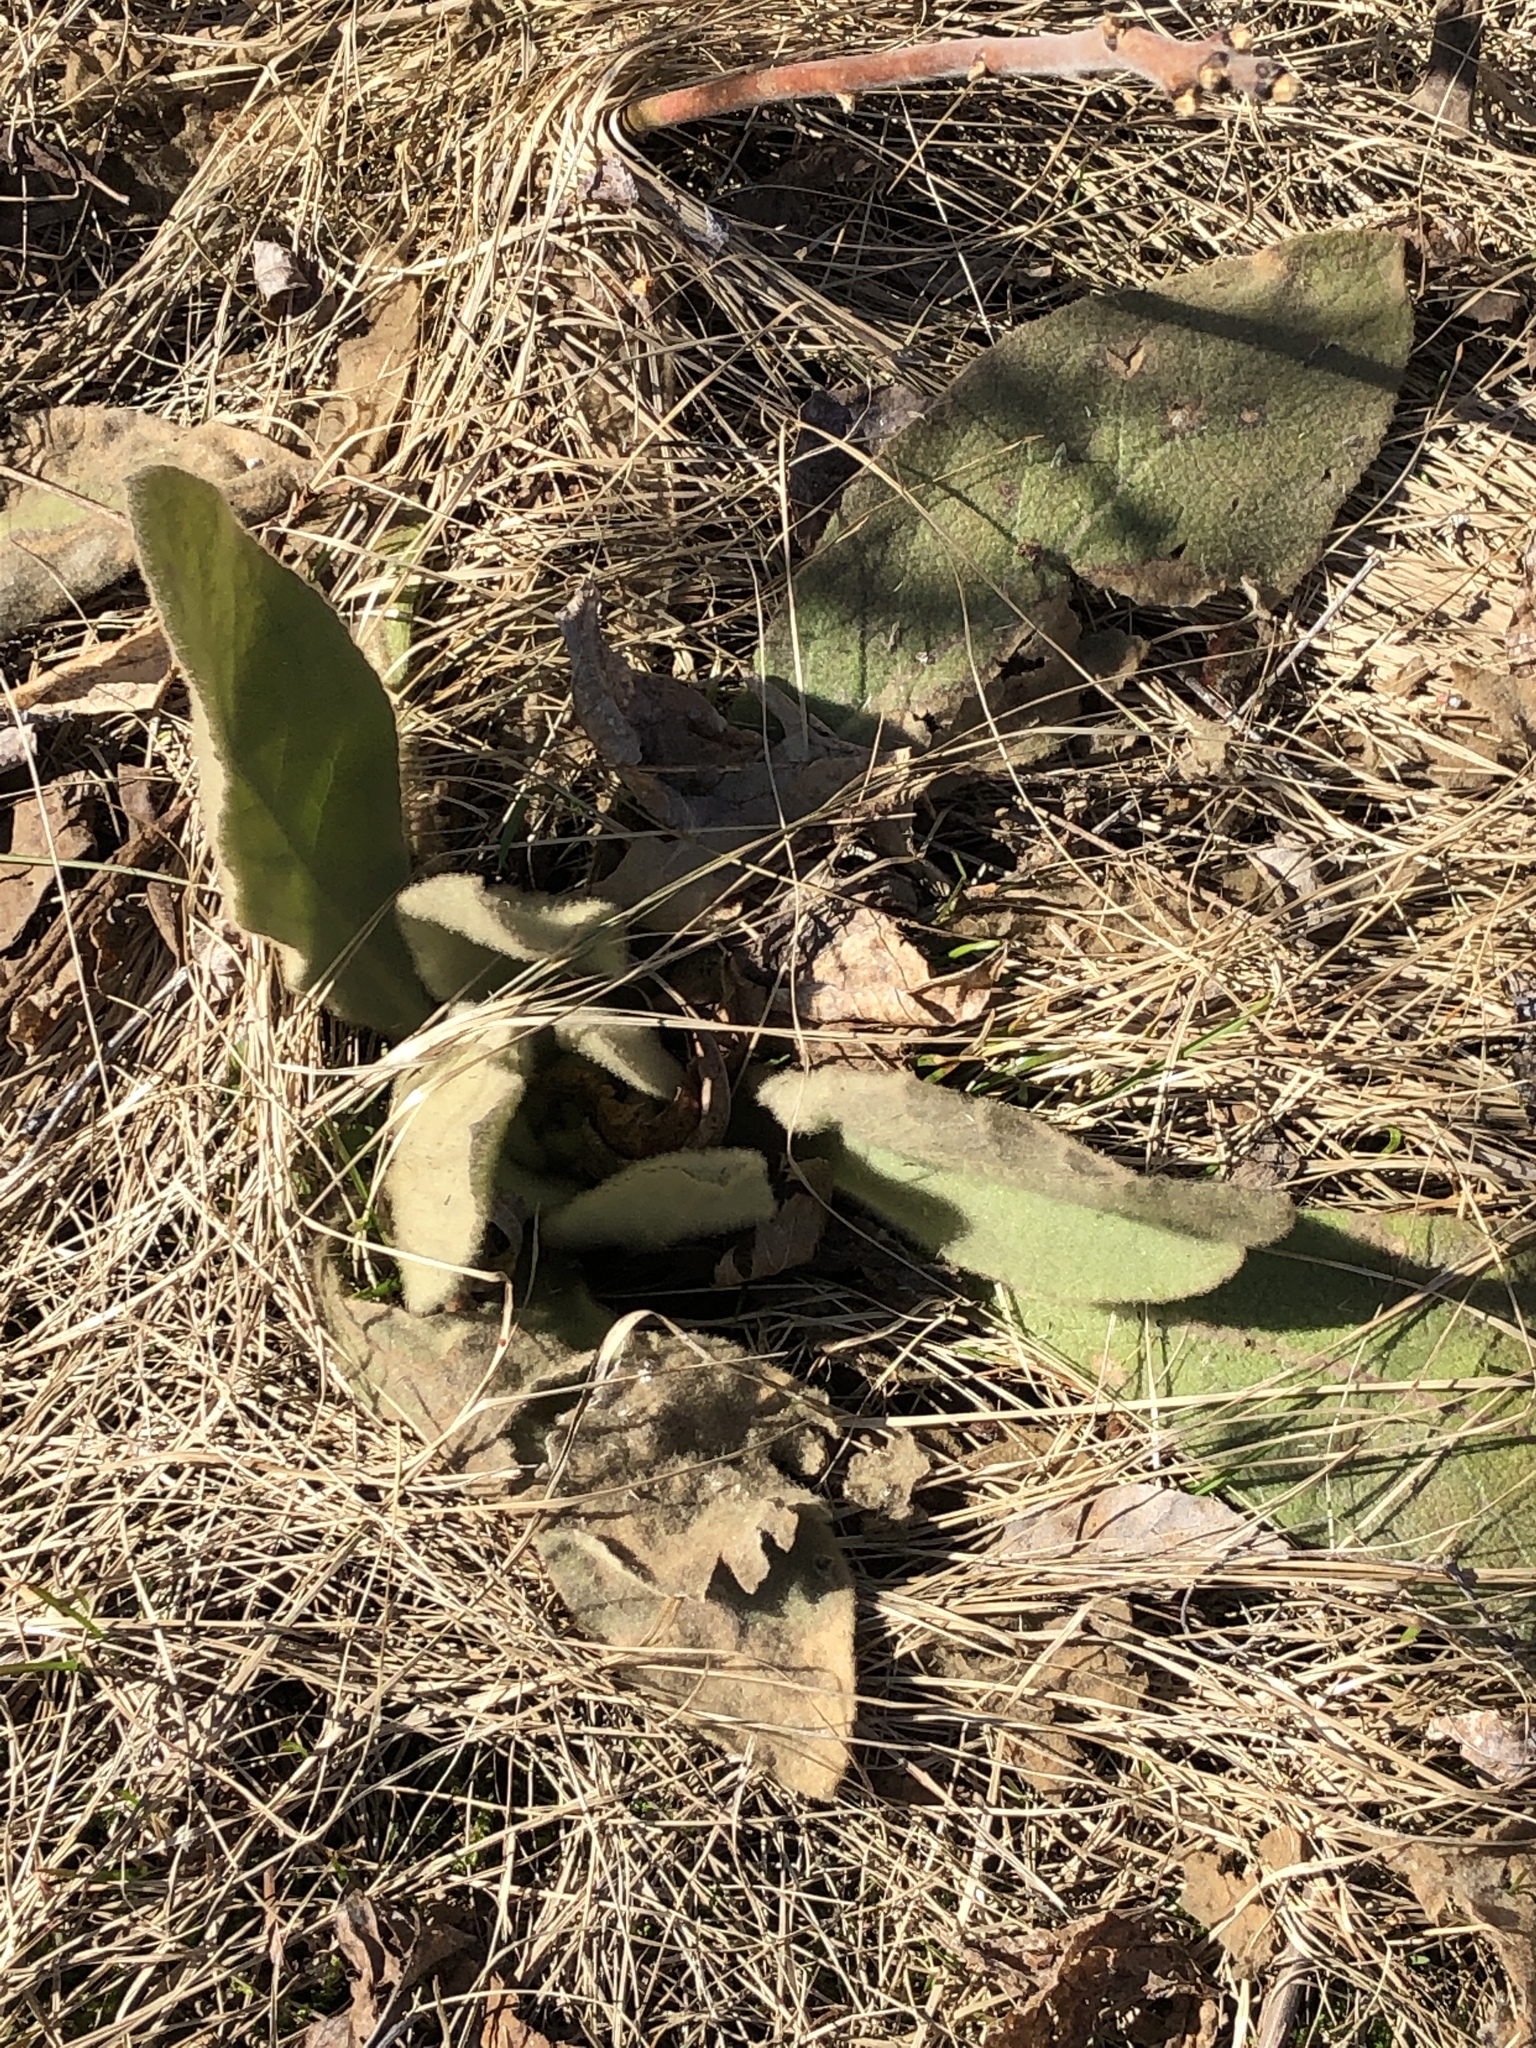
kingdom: Plantae
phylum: Tracheophyta
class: Magnoliopsida
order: Lamiales
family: Scrophulariaceae
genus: Verbascum
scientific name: Verbascum thapsus
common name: Common mullein
